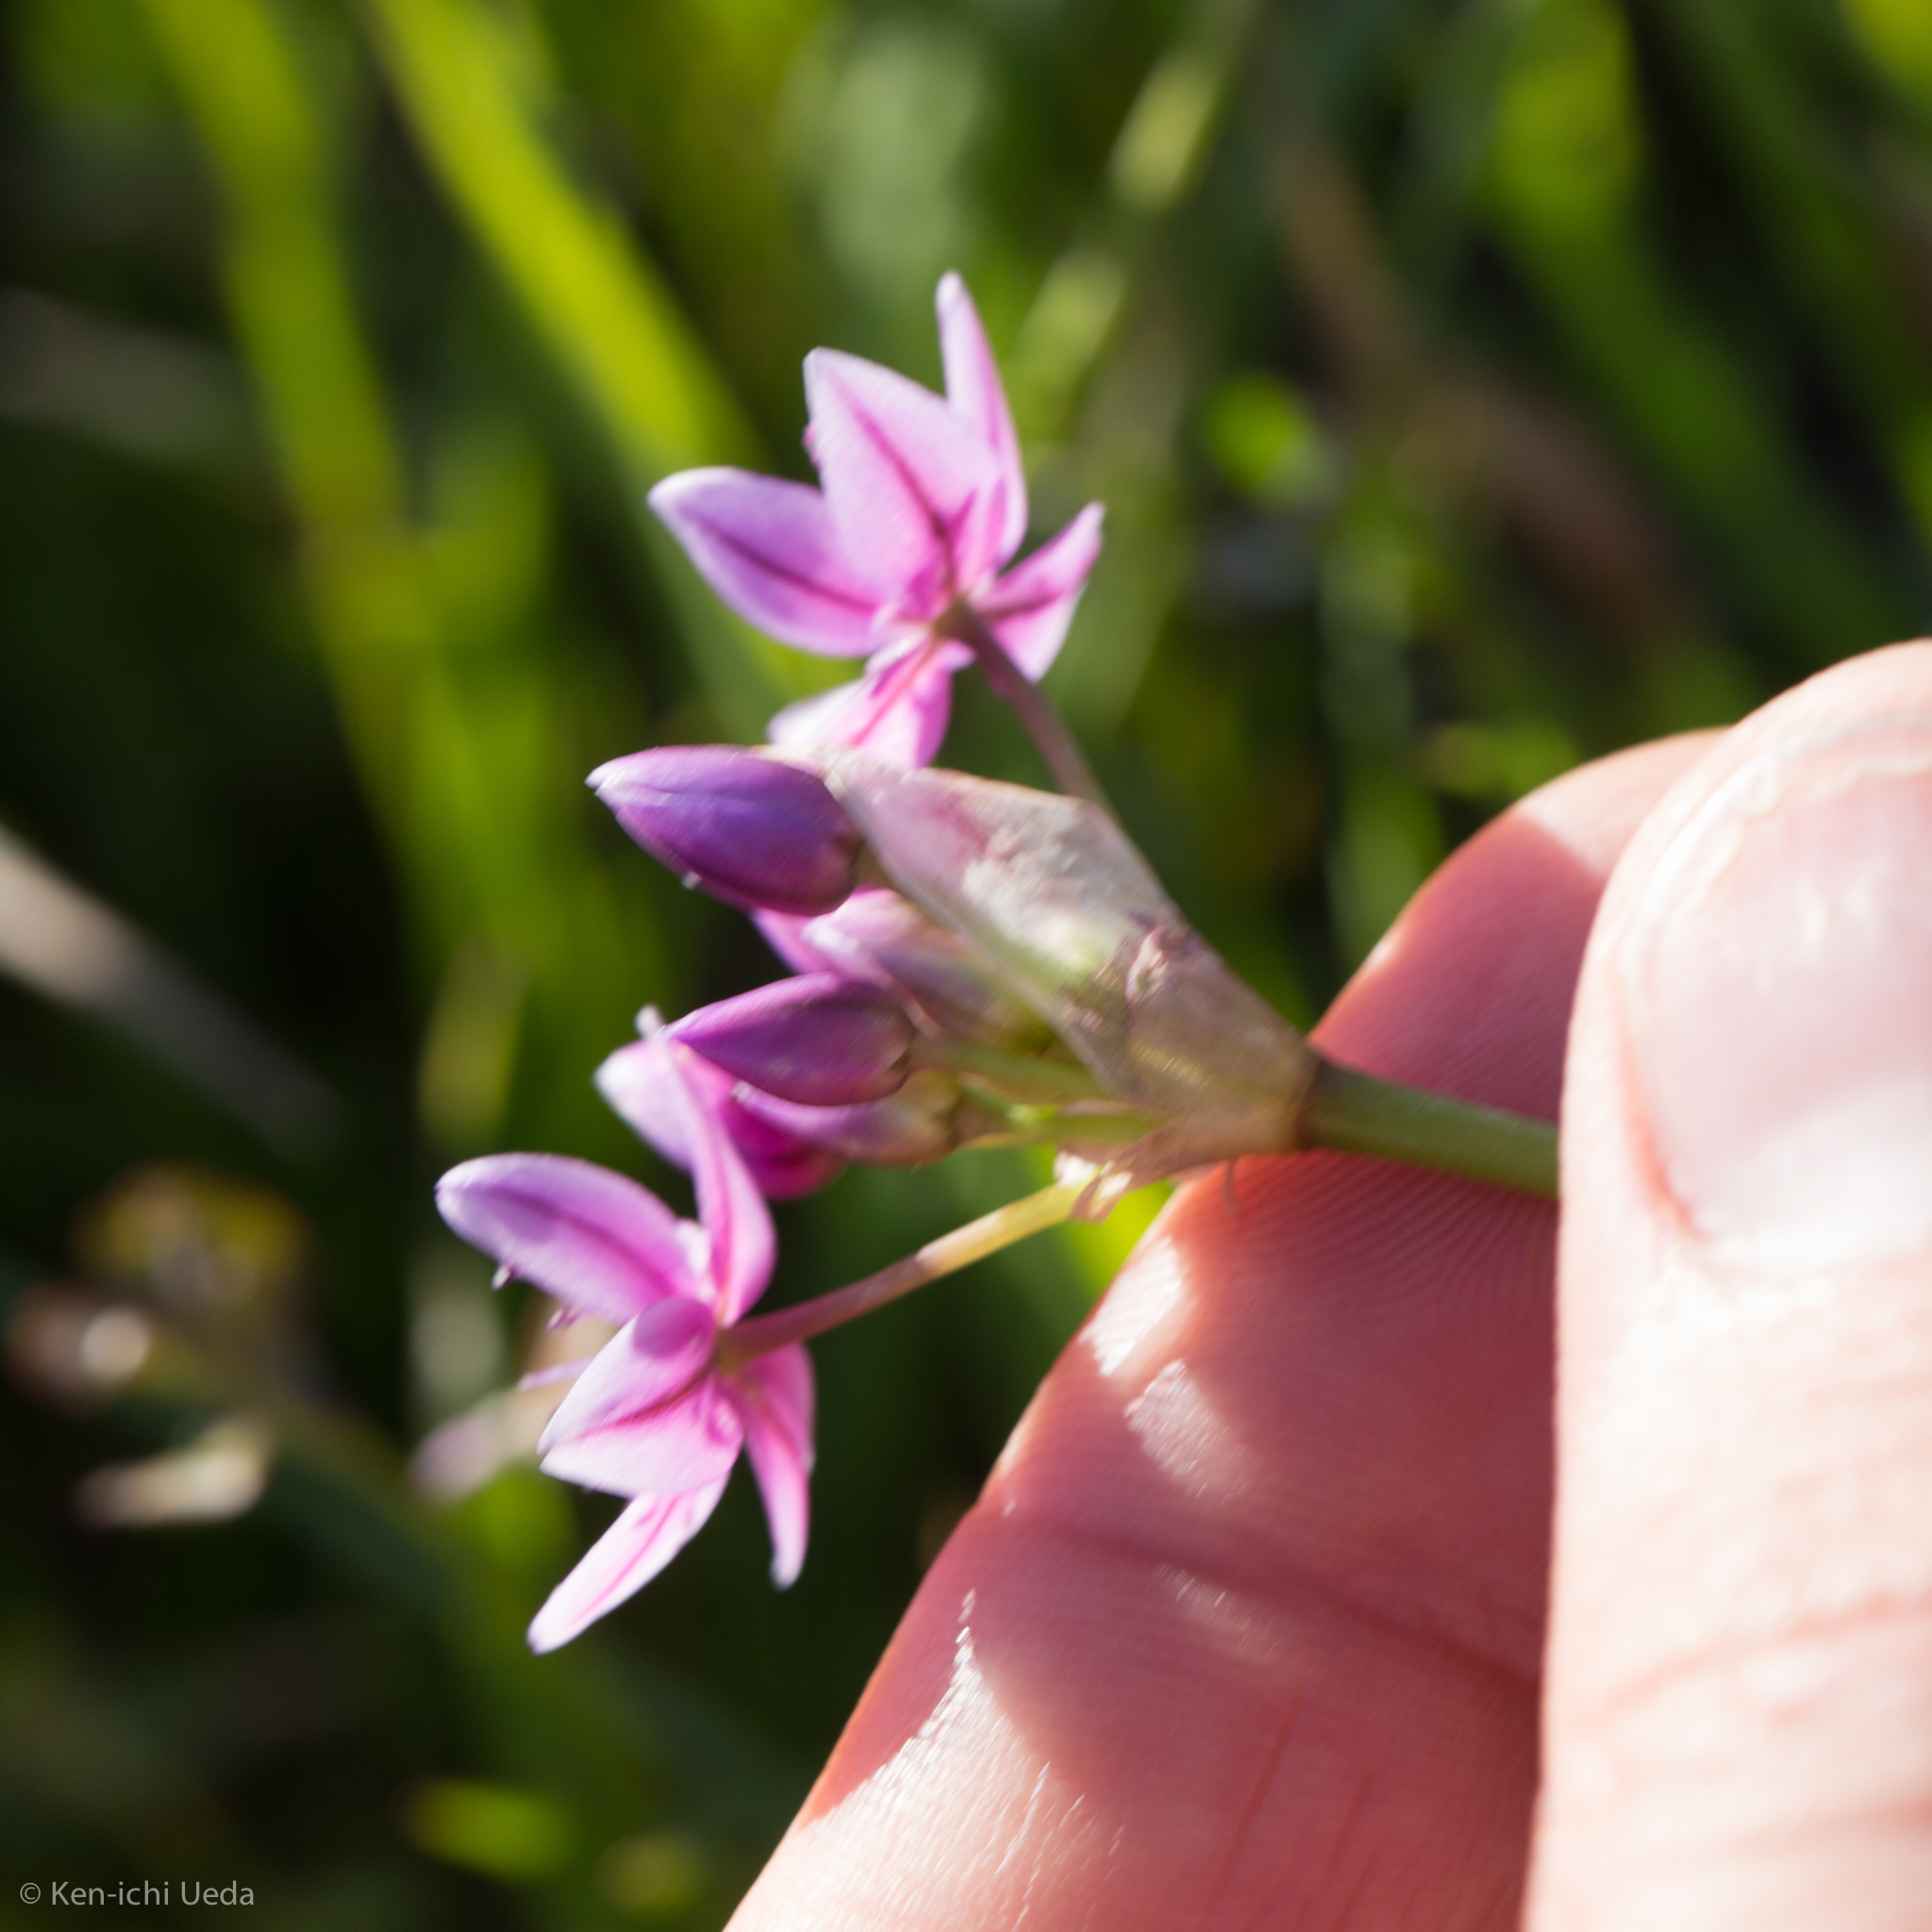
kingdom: Plantae
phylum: Tracheophyta
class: Liliopsida
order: Asparagales
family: Amaryllidaceae
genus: Allium
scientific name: Allium hyalinum
